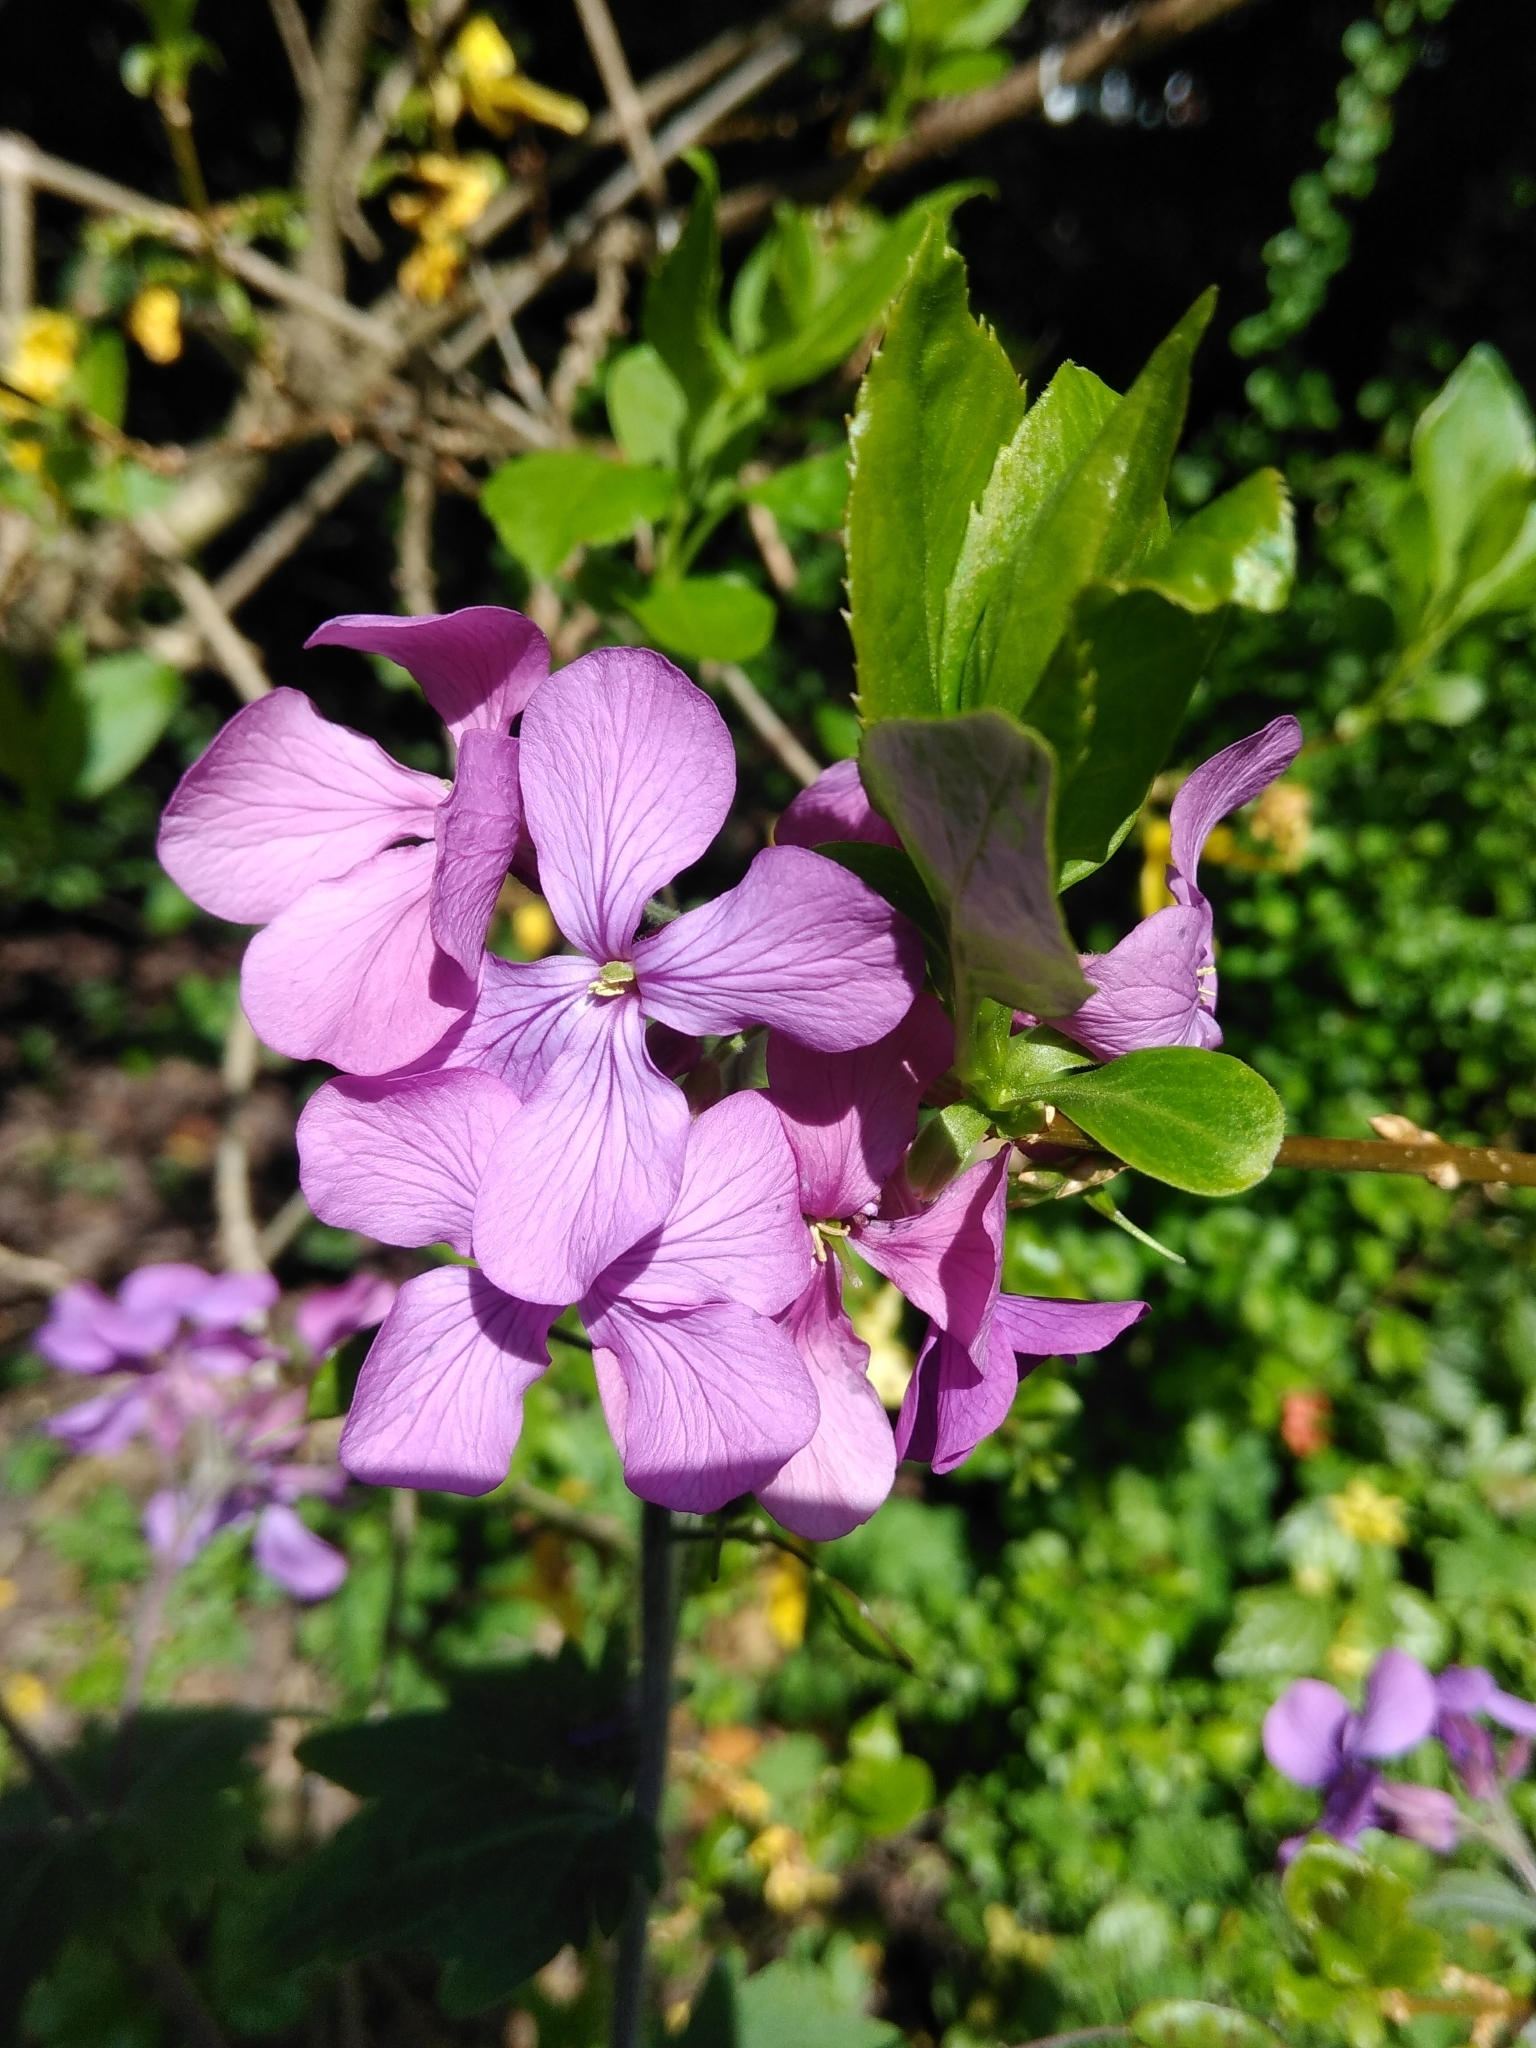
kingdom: Plantae
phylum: Tracheophyta
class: Magnoliopsida
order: Brassicales
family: Brassicaceae
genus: Lunaria
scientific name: Lunaria annua
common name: Honesty
